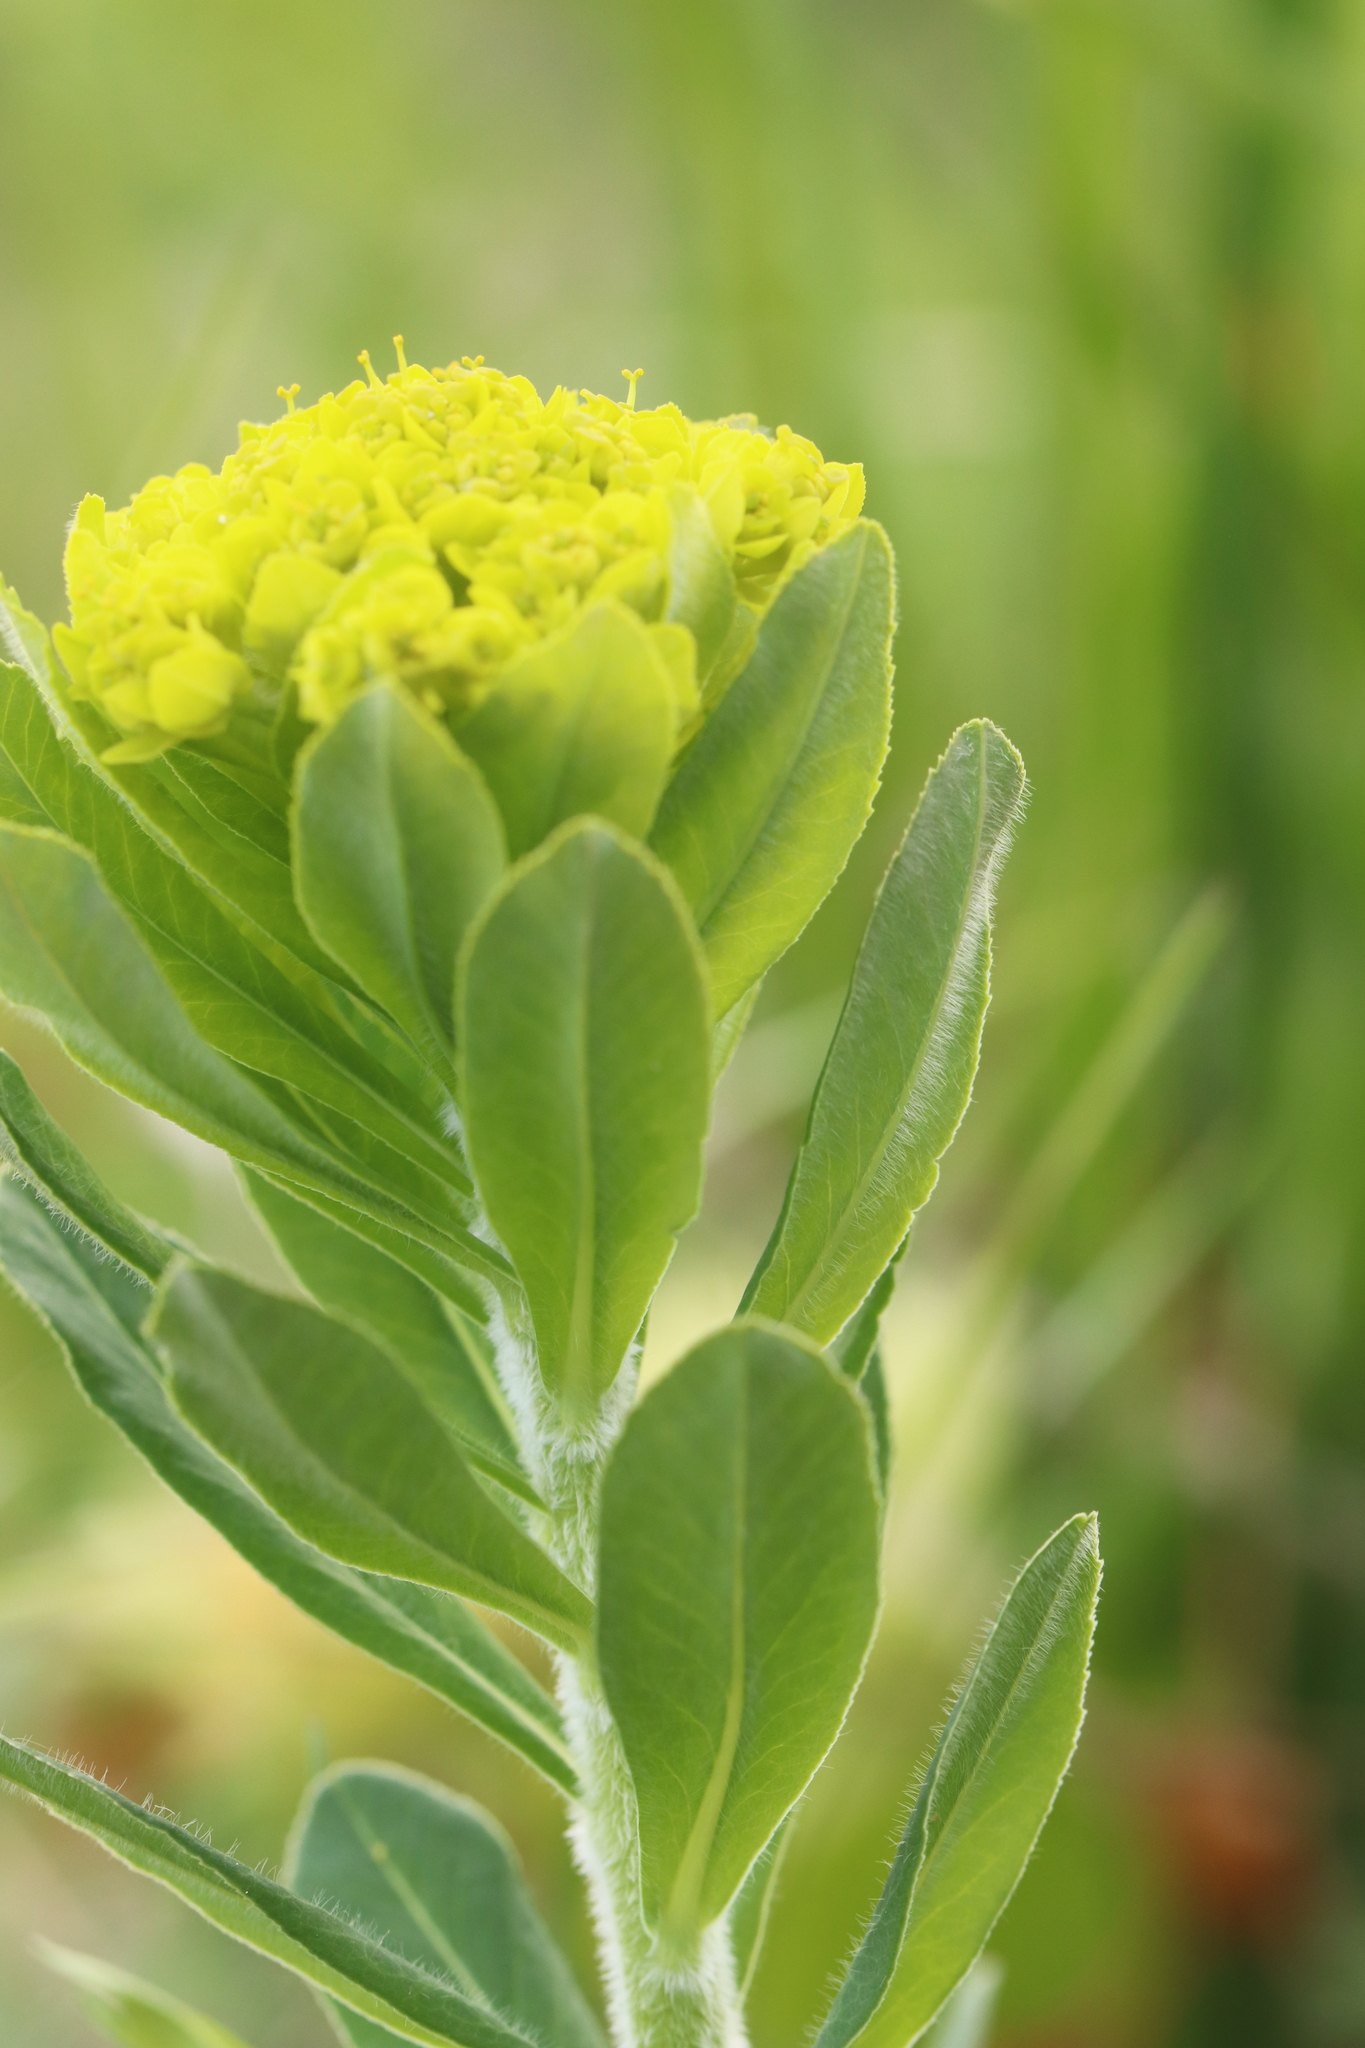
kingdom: Plantae
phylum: Tracheophyta
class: Magnoliopsida
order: Malpighiales
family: Euphorbiaceae
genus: Euphorbia
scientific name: Euphorbia pilosa
